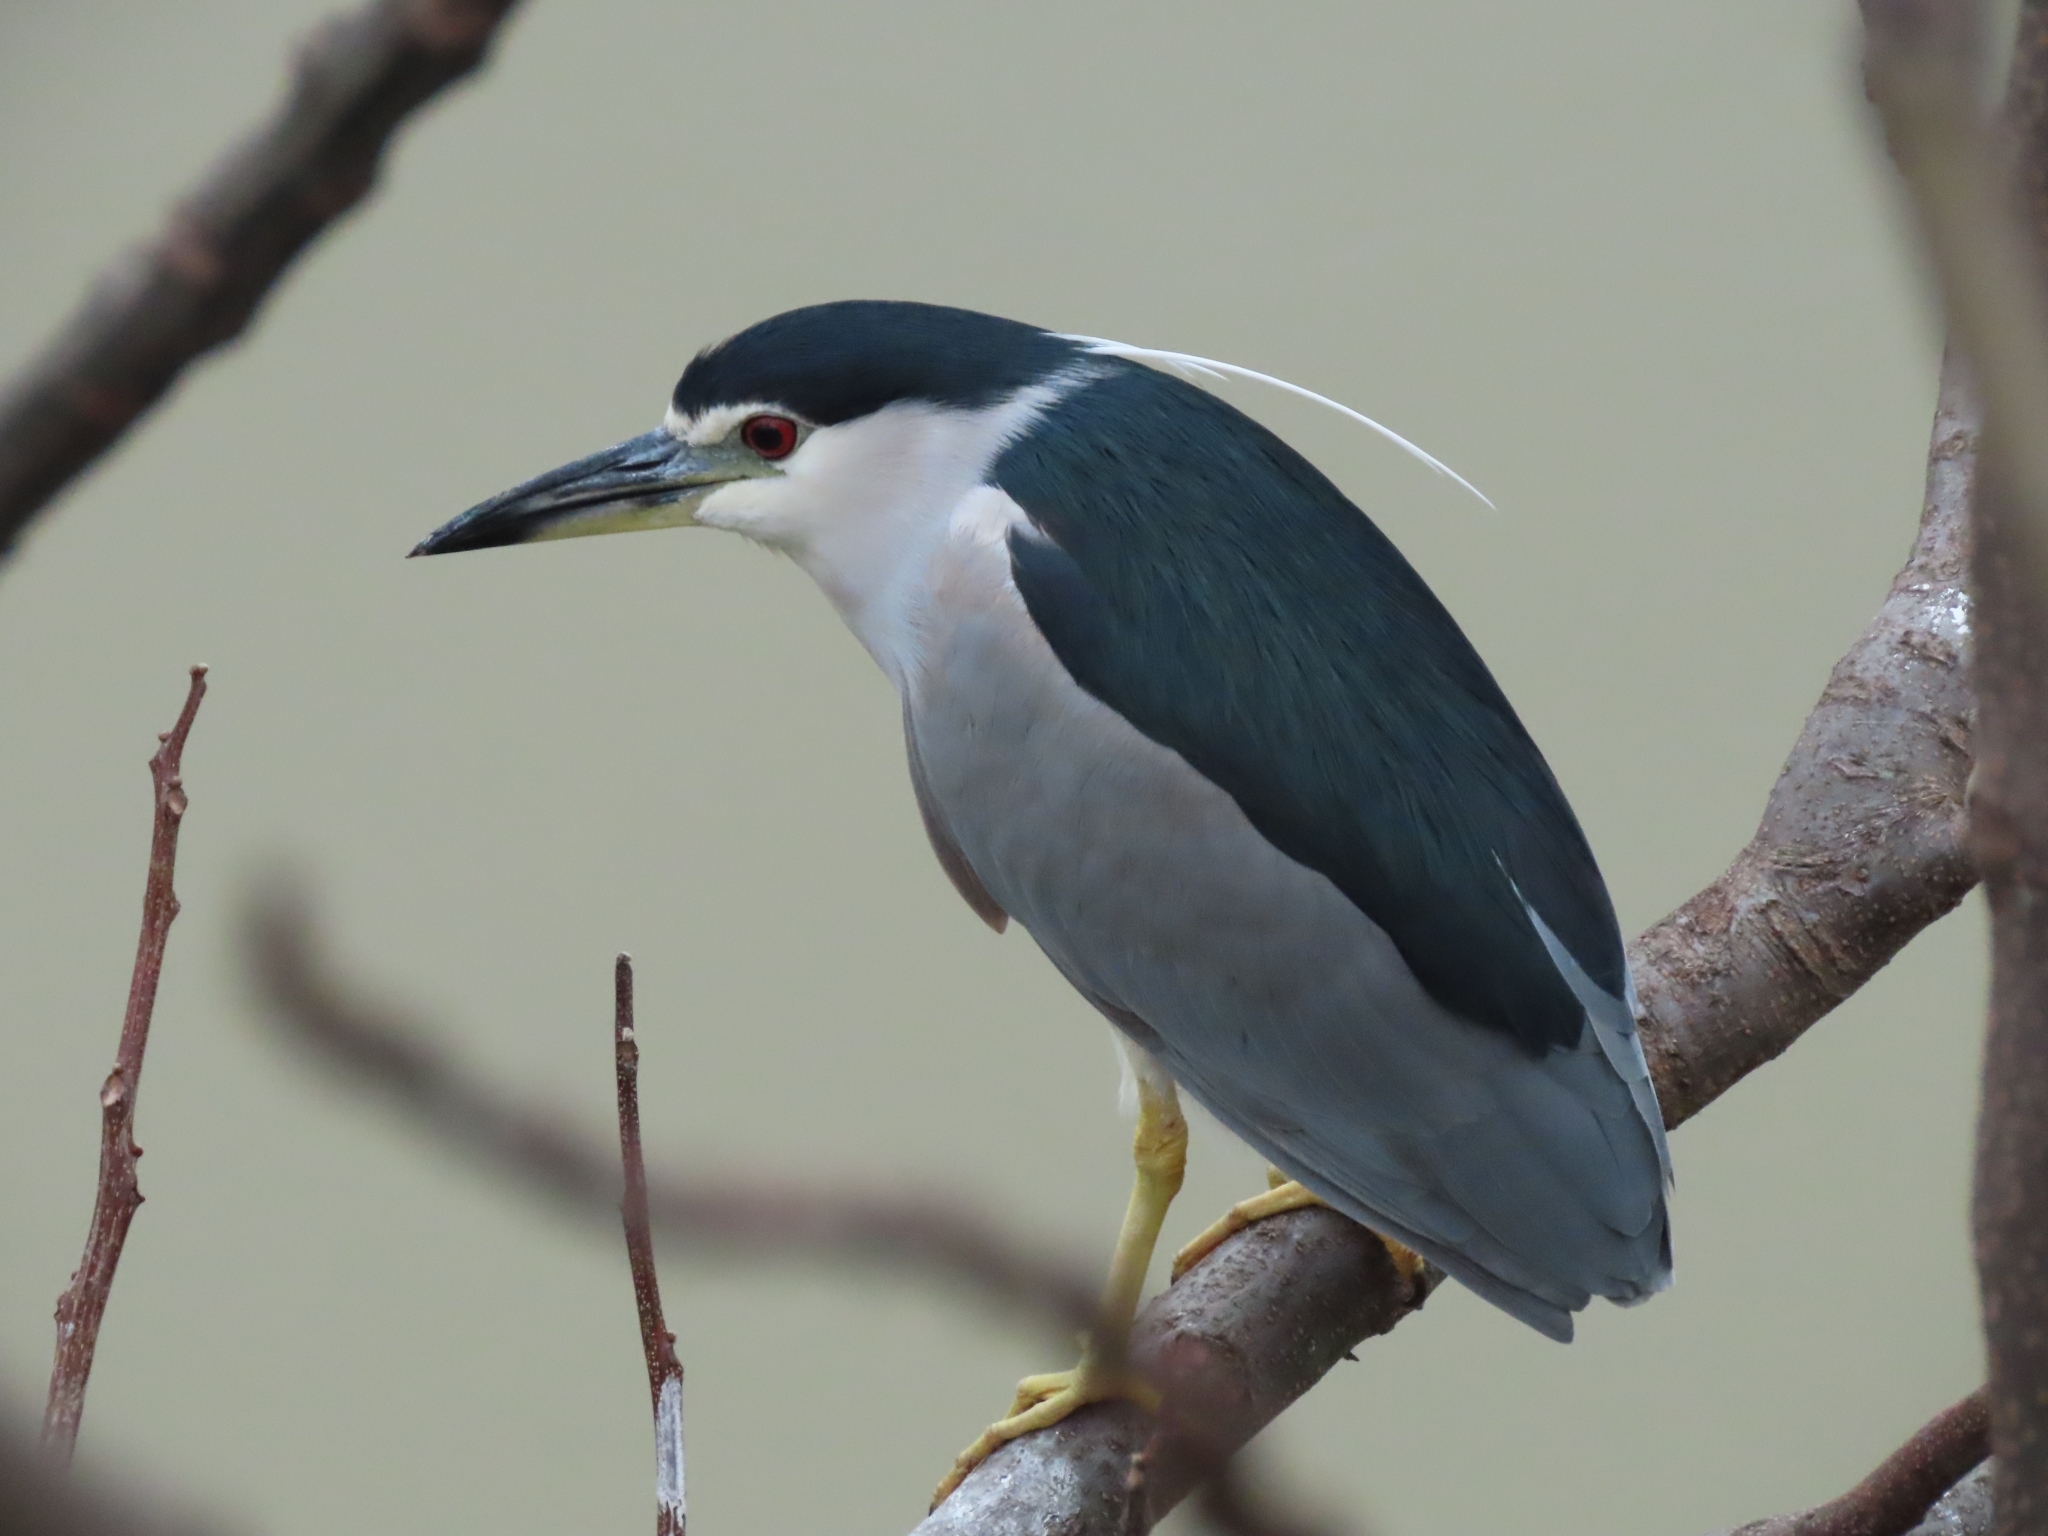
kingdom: Animalia
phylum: Chordata
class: Aves
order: Pelecaniformes
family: Ardeidae
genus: Nycticorax
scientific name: Nycticorax nycticorax
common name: Black-crowned night heron
